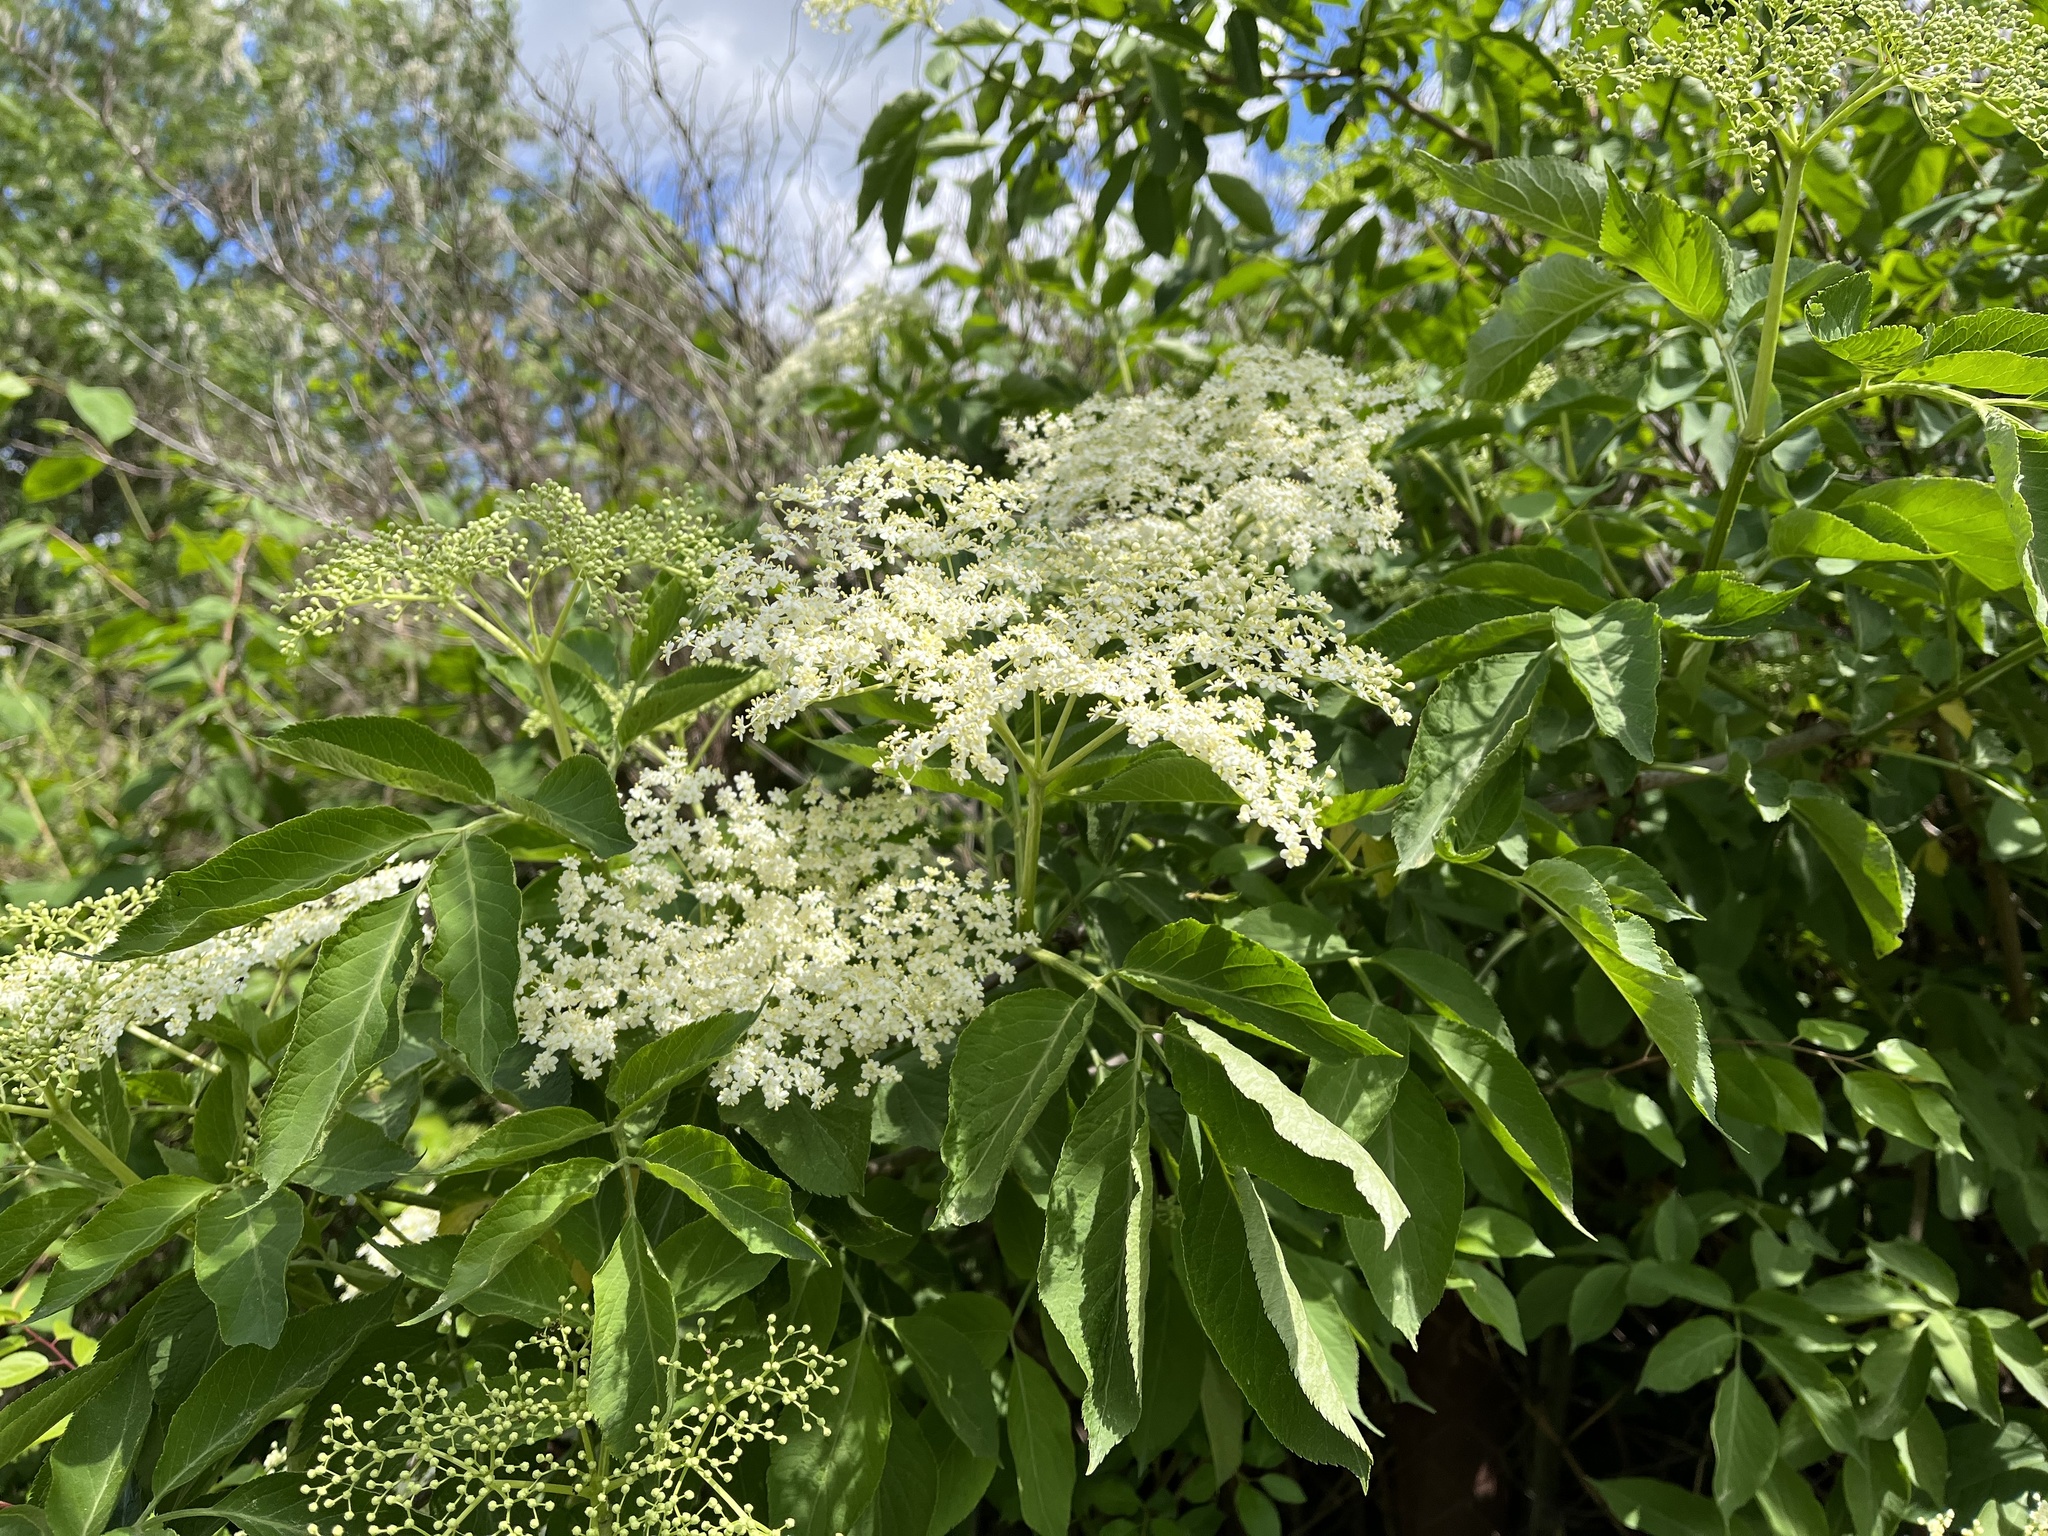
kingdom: Plantae
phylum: Tracheophyta
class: Magnoliopsida
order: Dipsacales
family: Viburnaceae
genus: Sambucus
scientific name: Sambucus nigra
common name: Elder
